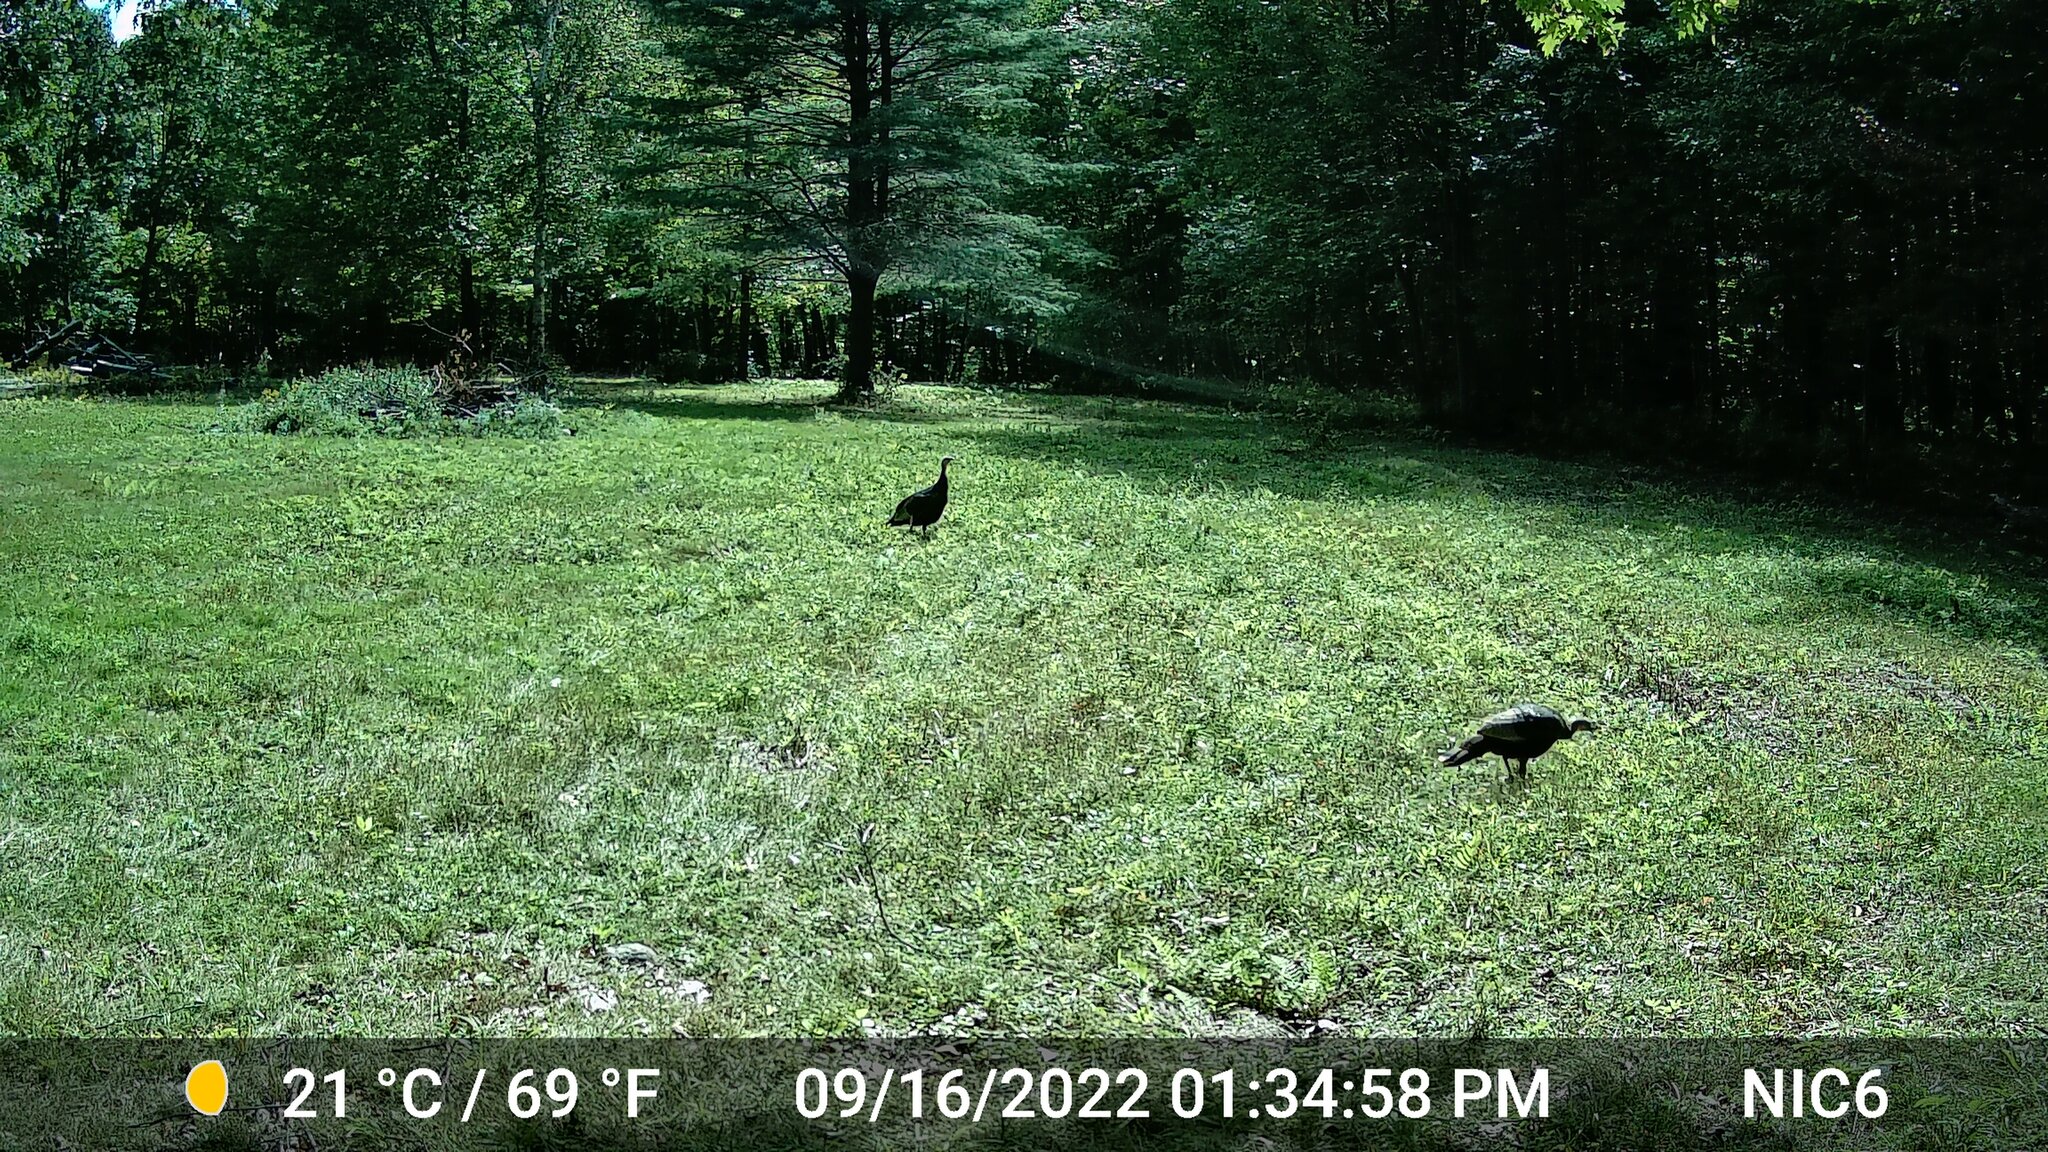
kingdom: Animalia
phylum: Chordata
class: Aves
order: Galliformes
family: Phasianidae
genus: Meleagris
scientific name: Meleagris gallopavo
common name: Wild turkey
